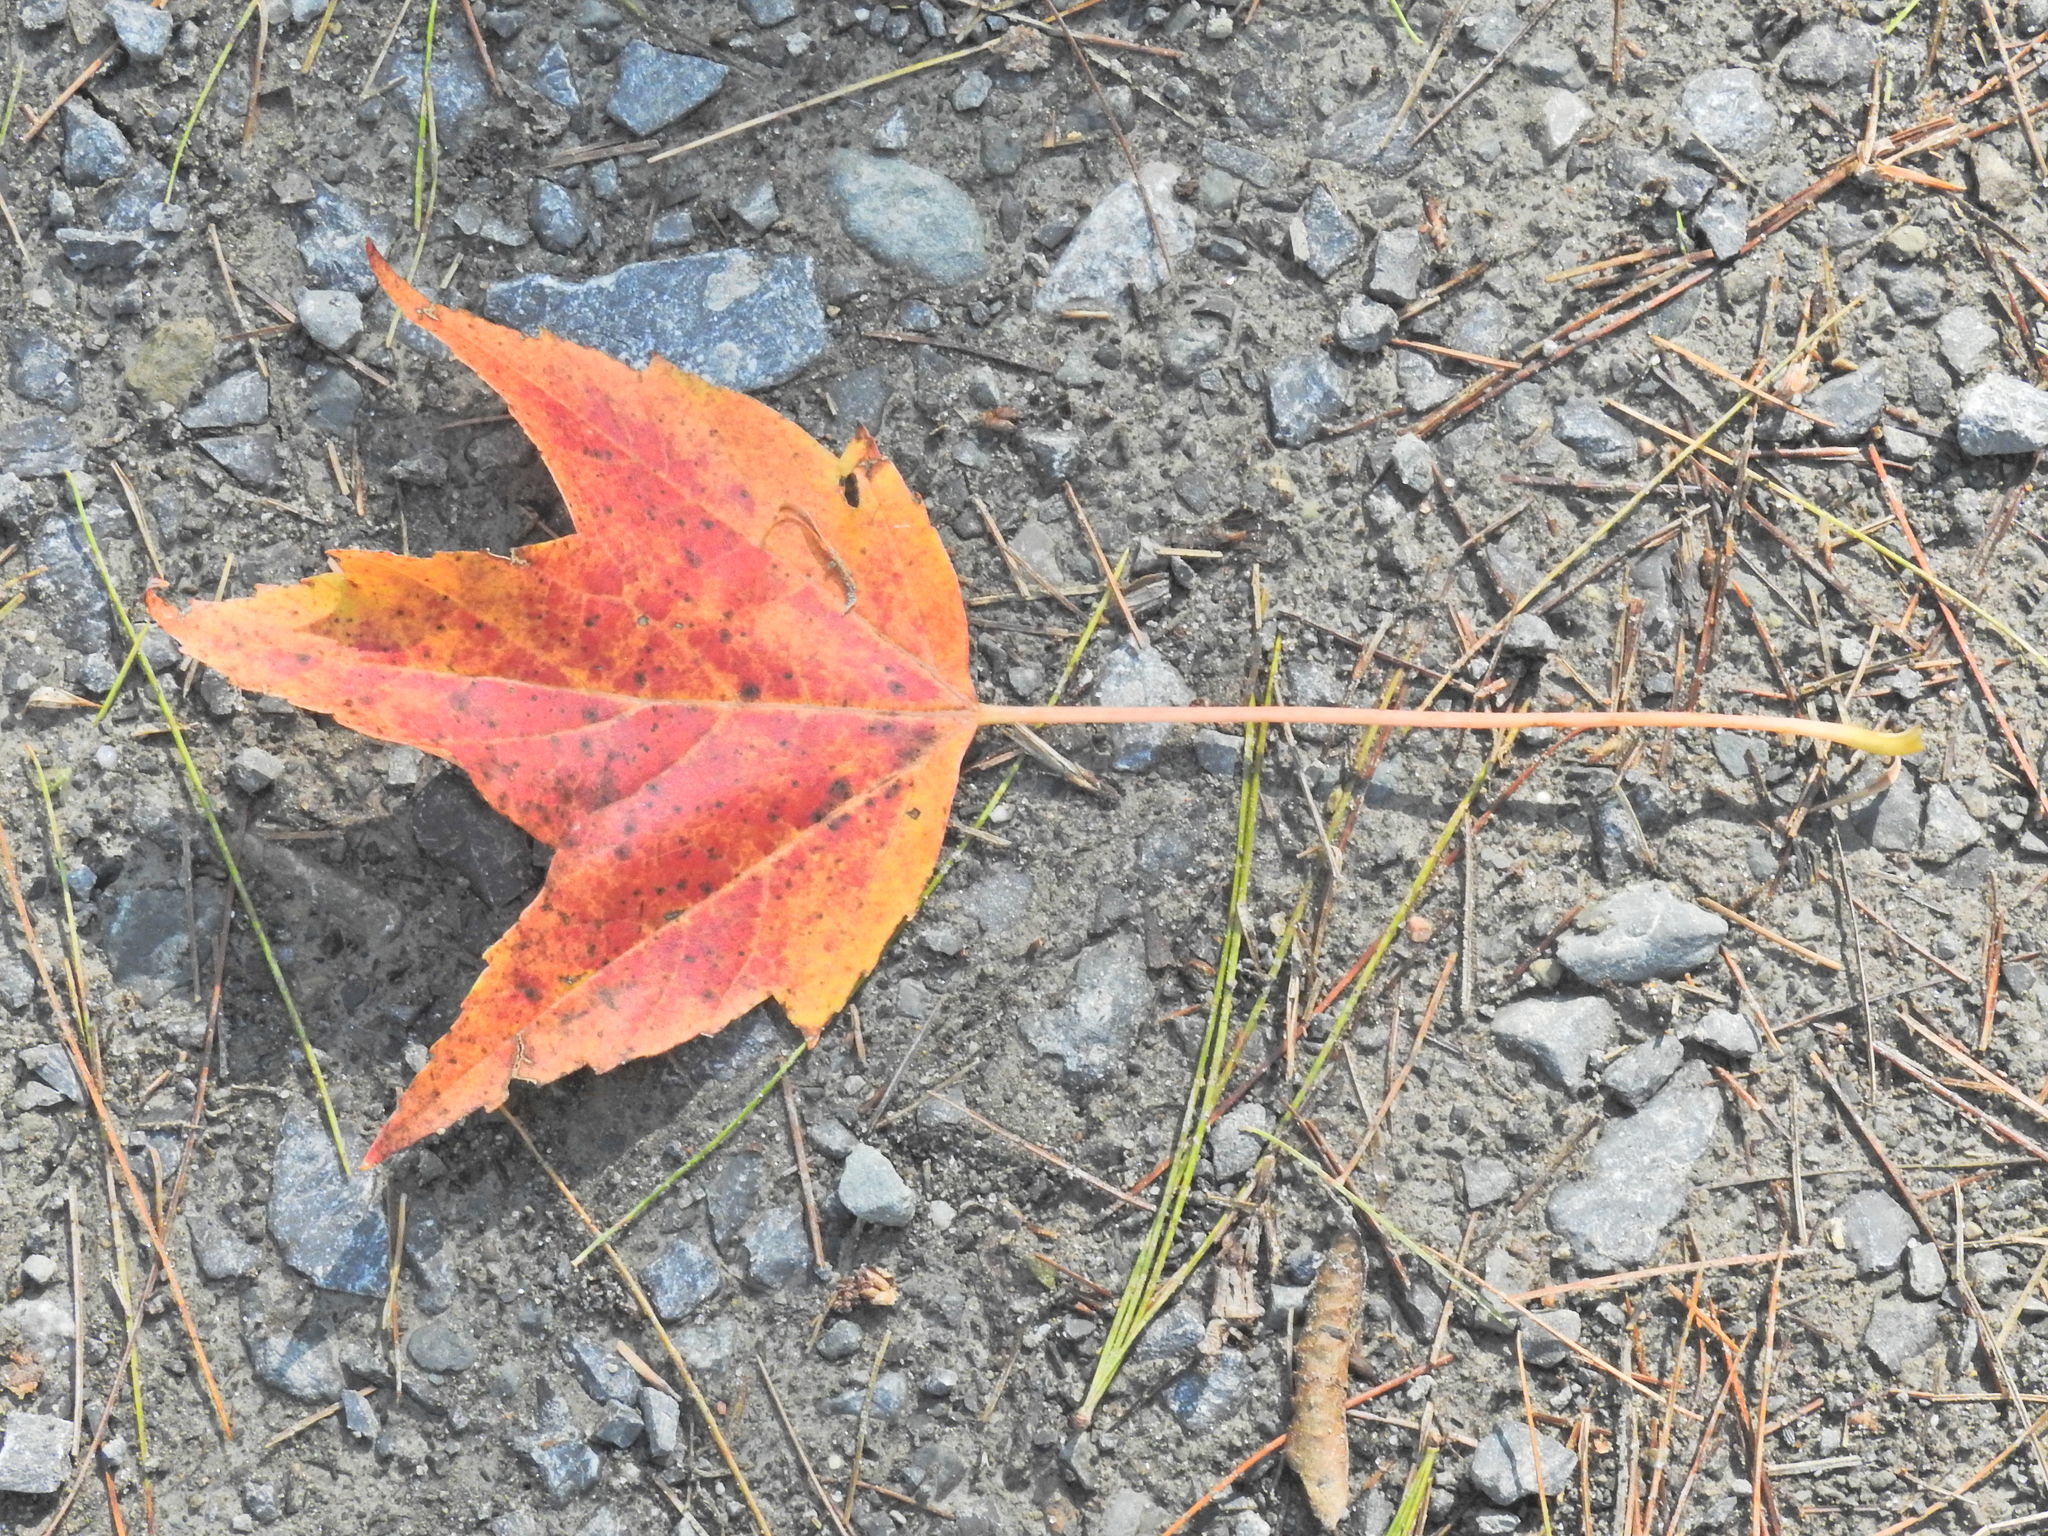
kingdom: Plantae
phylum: Tracheophyta
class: Magnoliopsida
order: Sapindales
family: Sapindaceae
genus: Acer
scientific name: Acer rubrum
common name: Red maple
